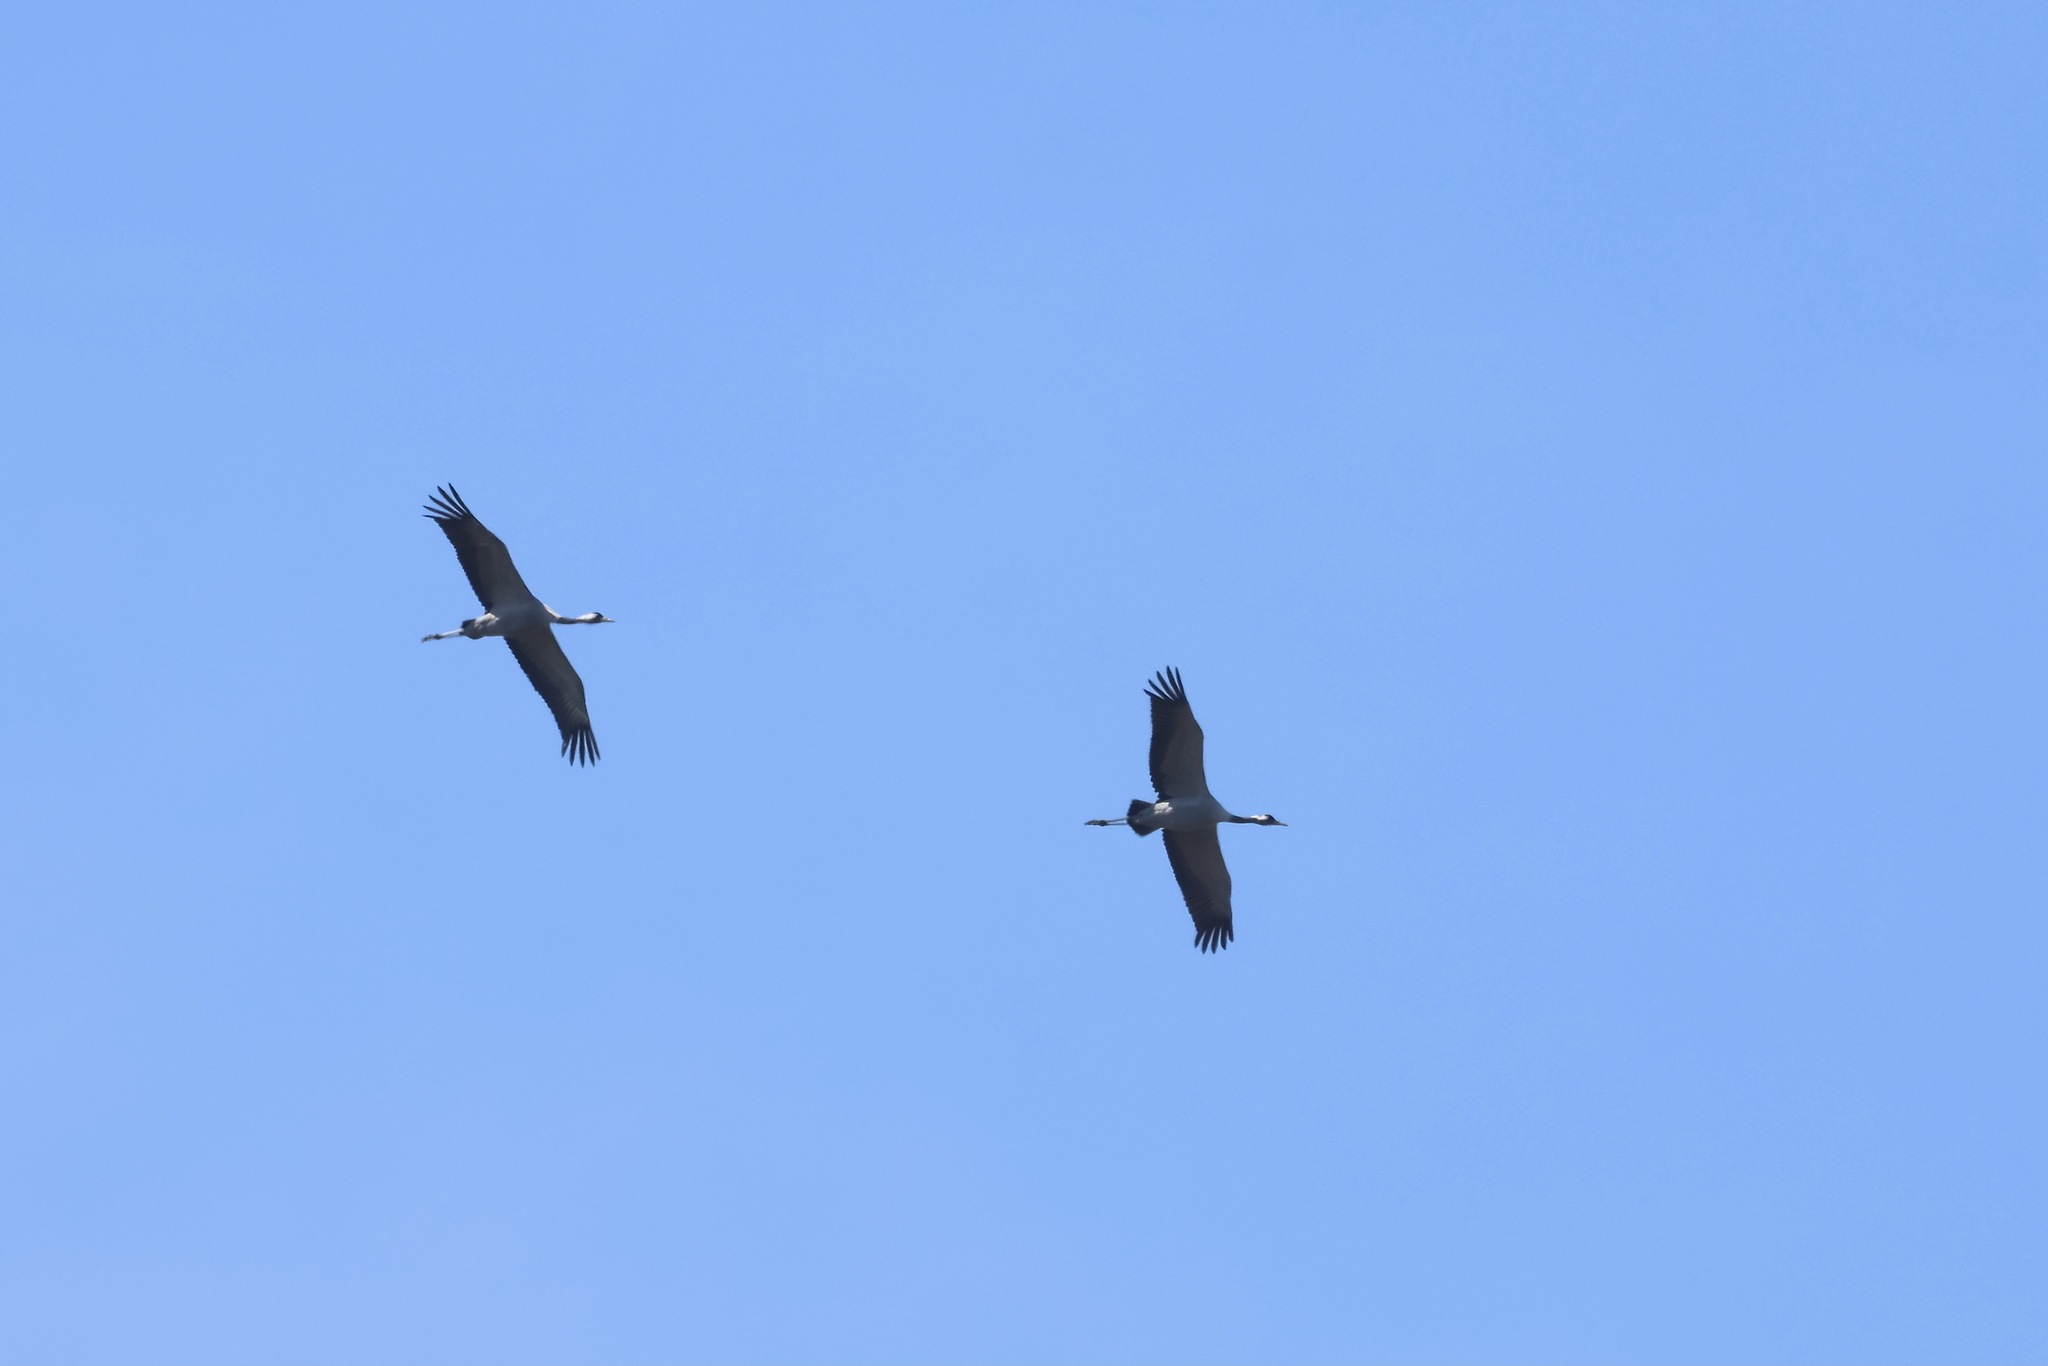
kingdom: Animalia
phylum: Chordata
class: Aves
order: Gruiformes
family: Gruidae
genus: Grus
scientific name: Grus grus
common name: Common crane
